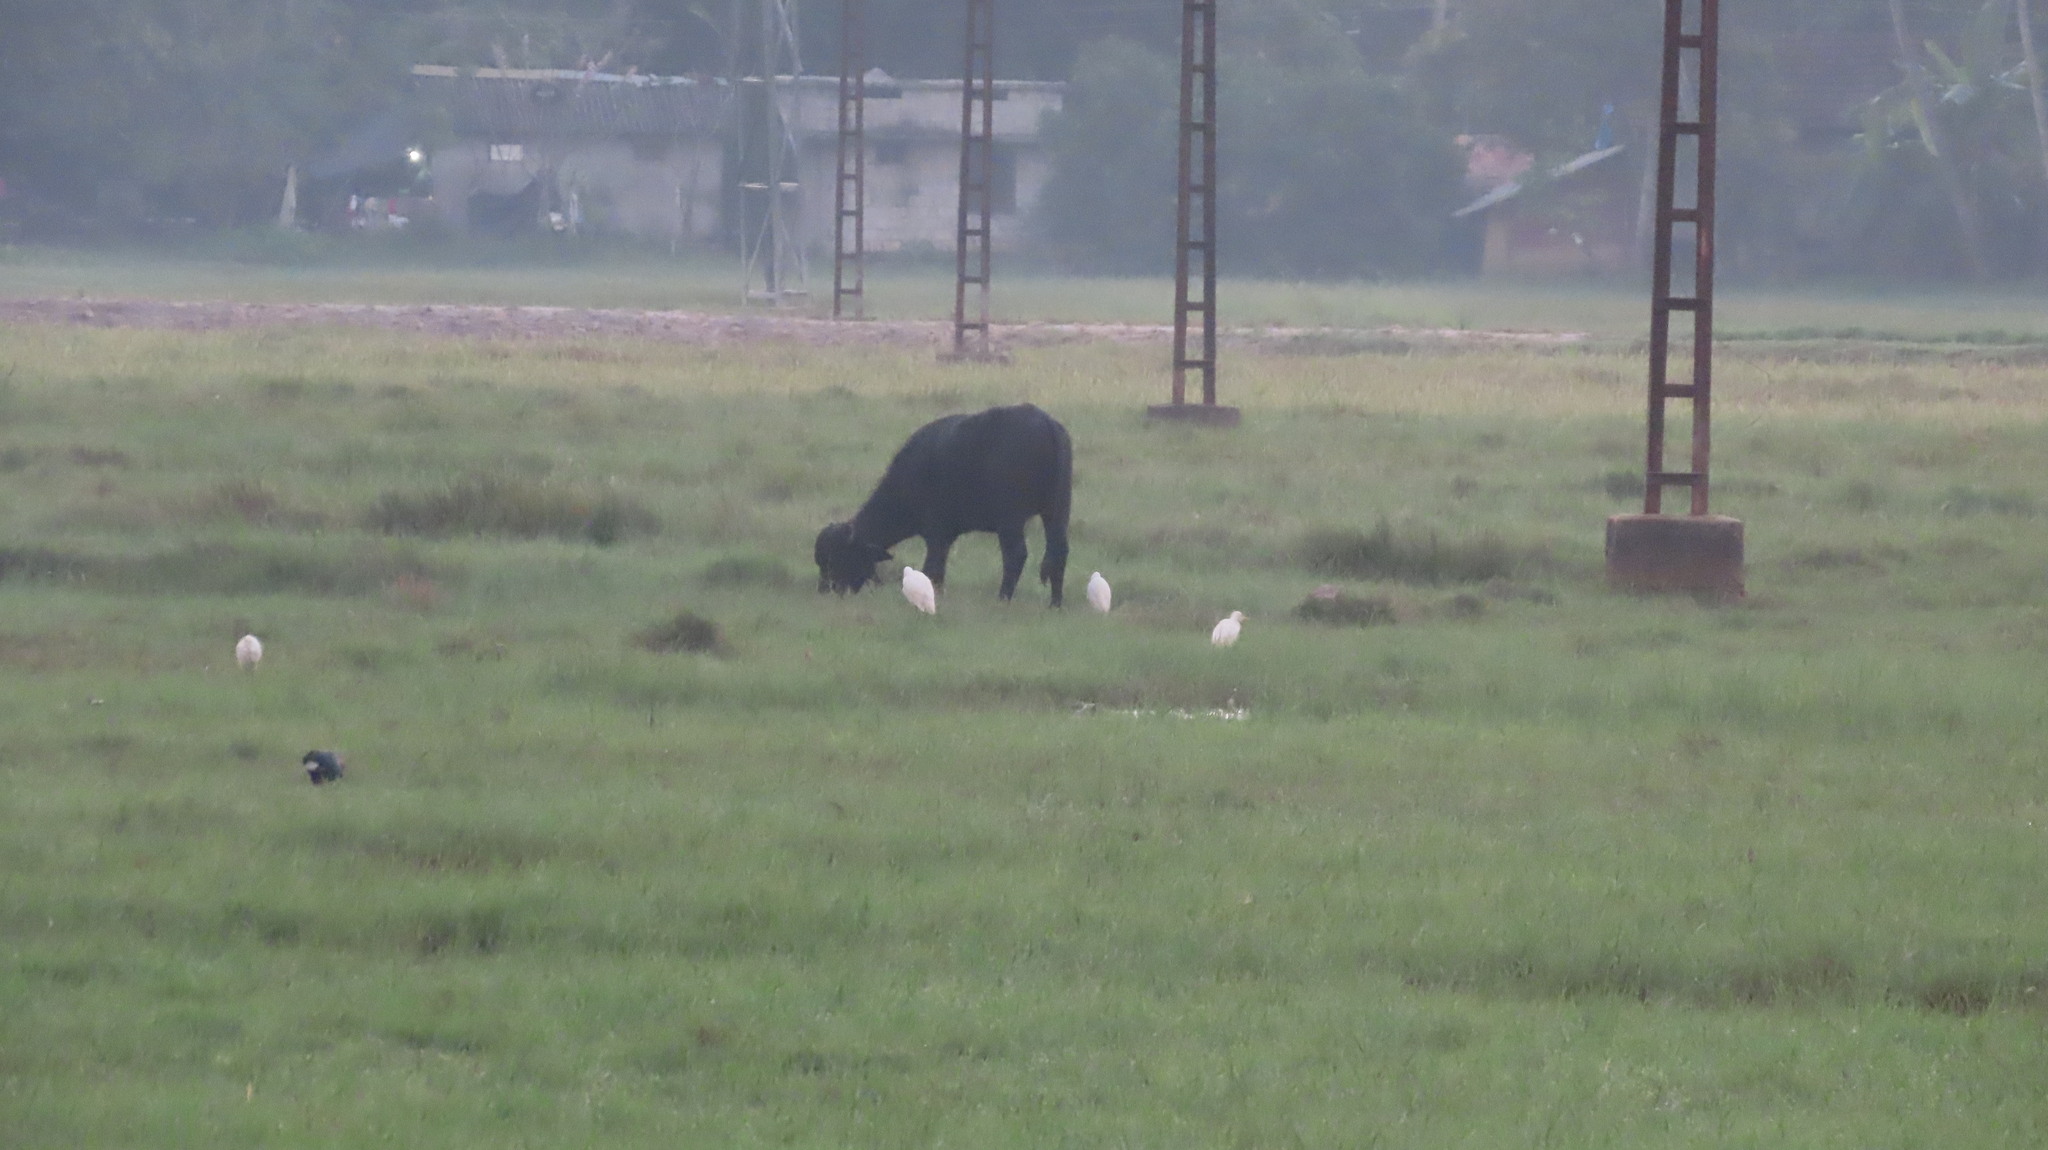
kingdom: Animalia
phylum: Chordata
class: Aves
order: Pelecaniformes
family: Ardeidae
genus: Bubulcus
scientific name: Bubulcus coromandus
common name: Eastern cattle egret
